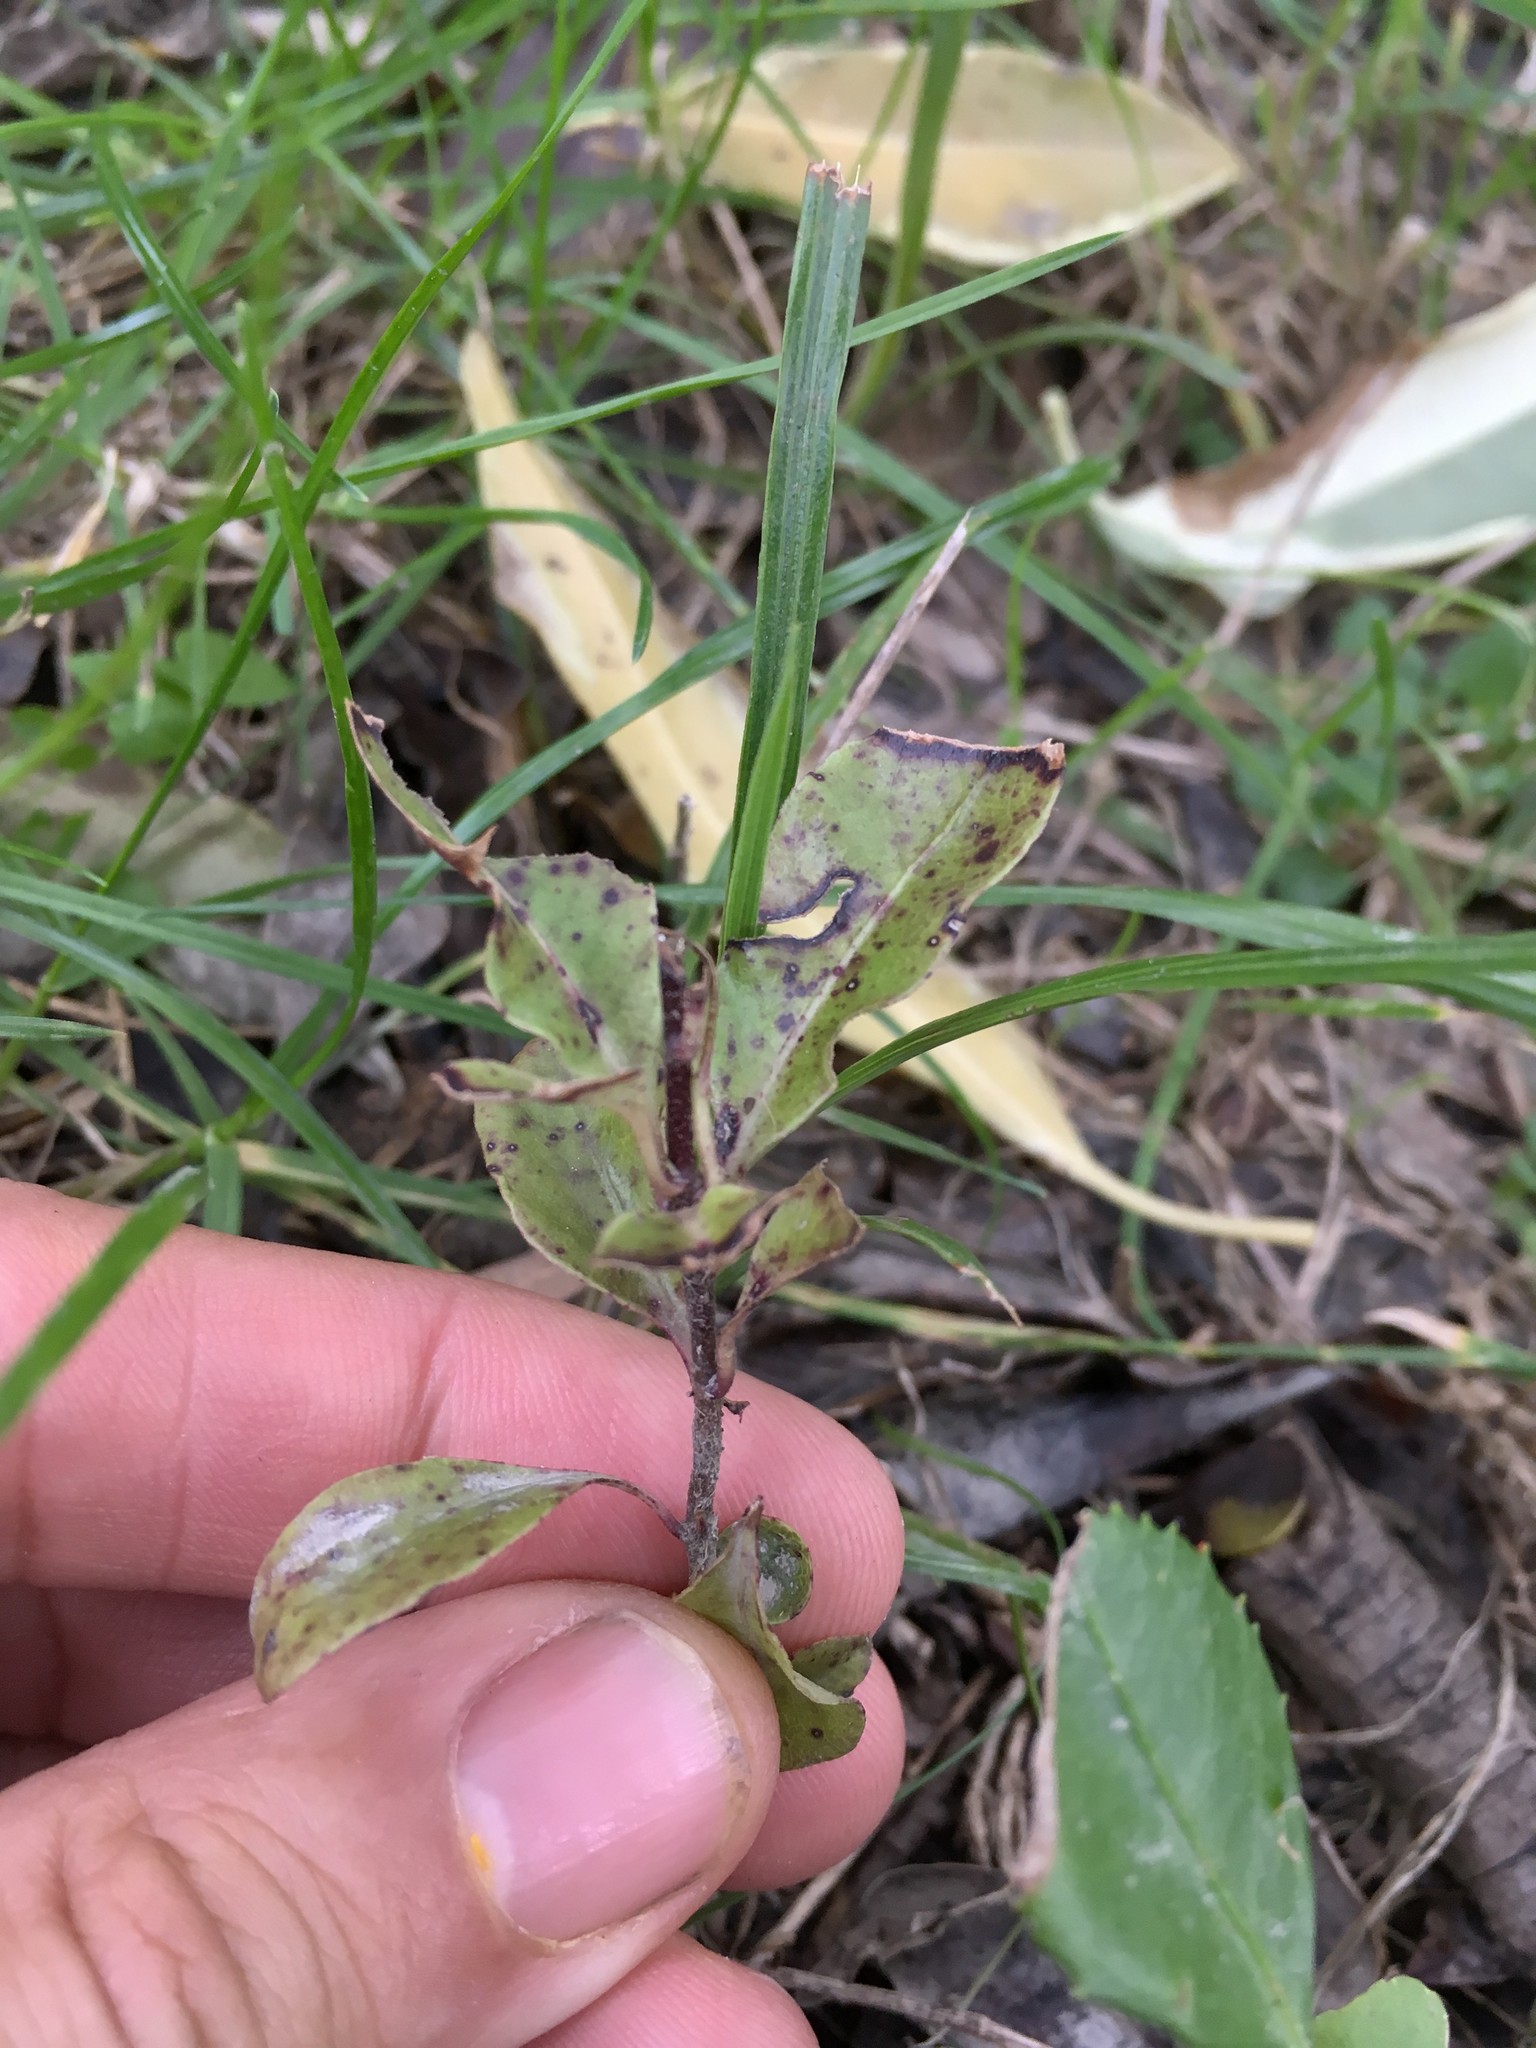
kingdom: Plantae
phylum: Tracheophyta
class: Magnoliopsida
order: Apiales
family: Pittosporaceae
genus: Pittosporum
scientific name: Pittosporum tenuifolium
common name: Kohuhu
